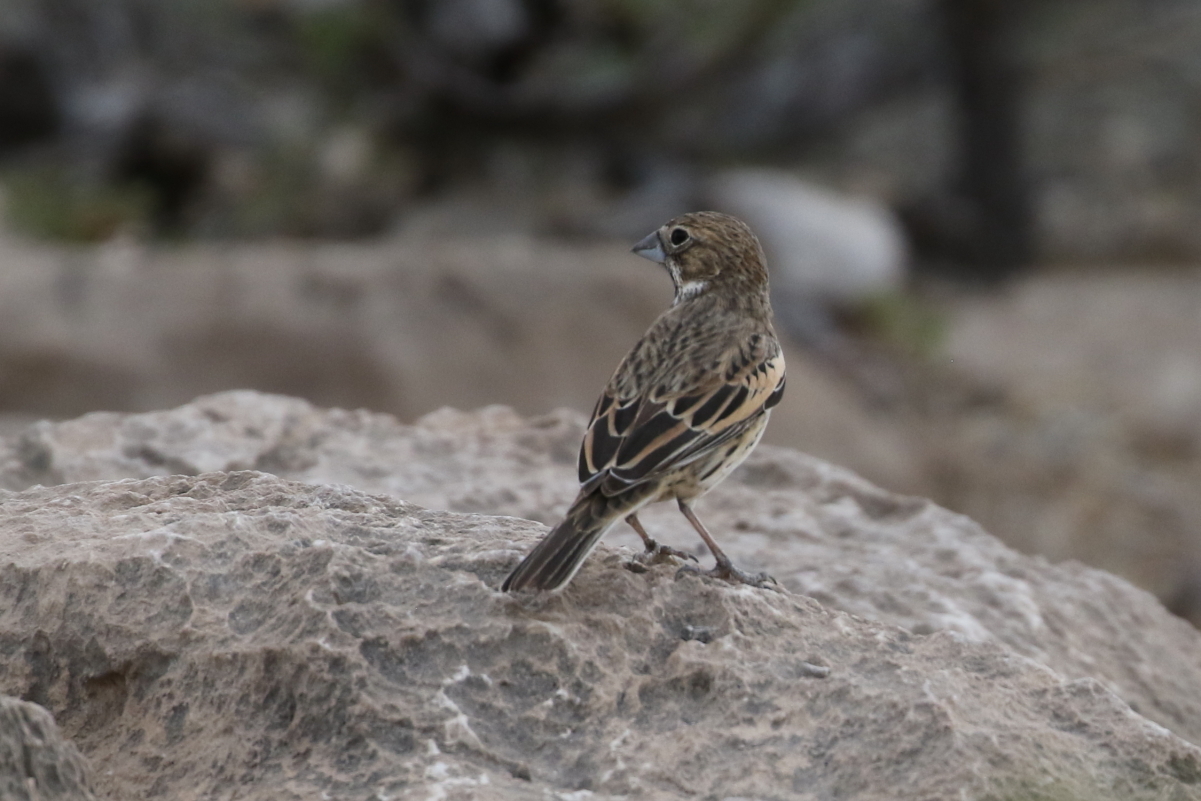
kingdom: Animalia
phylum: Chordata
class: Aves
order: Passeriformes
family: Passerellidae
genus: Calamospiza
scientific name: Calamospiza melanocorys
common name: Lark bunting
